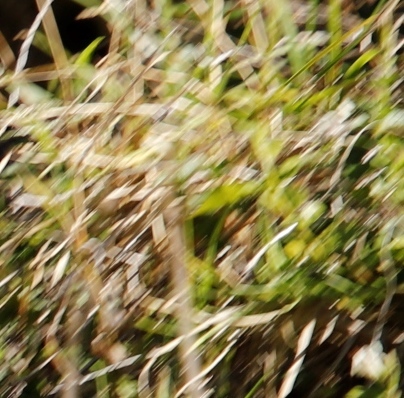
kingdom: Animalia
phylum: Arthropoda
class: Insecta
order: Lepidoptera
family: Nymphalidae
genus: Dira
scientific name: Dira clytus
